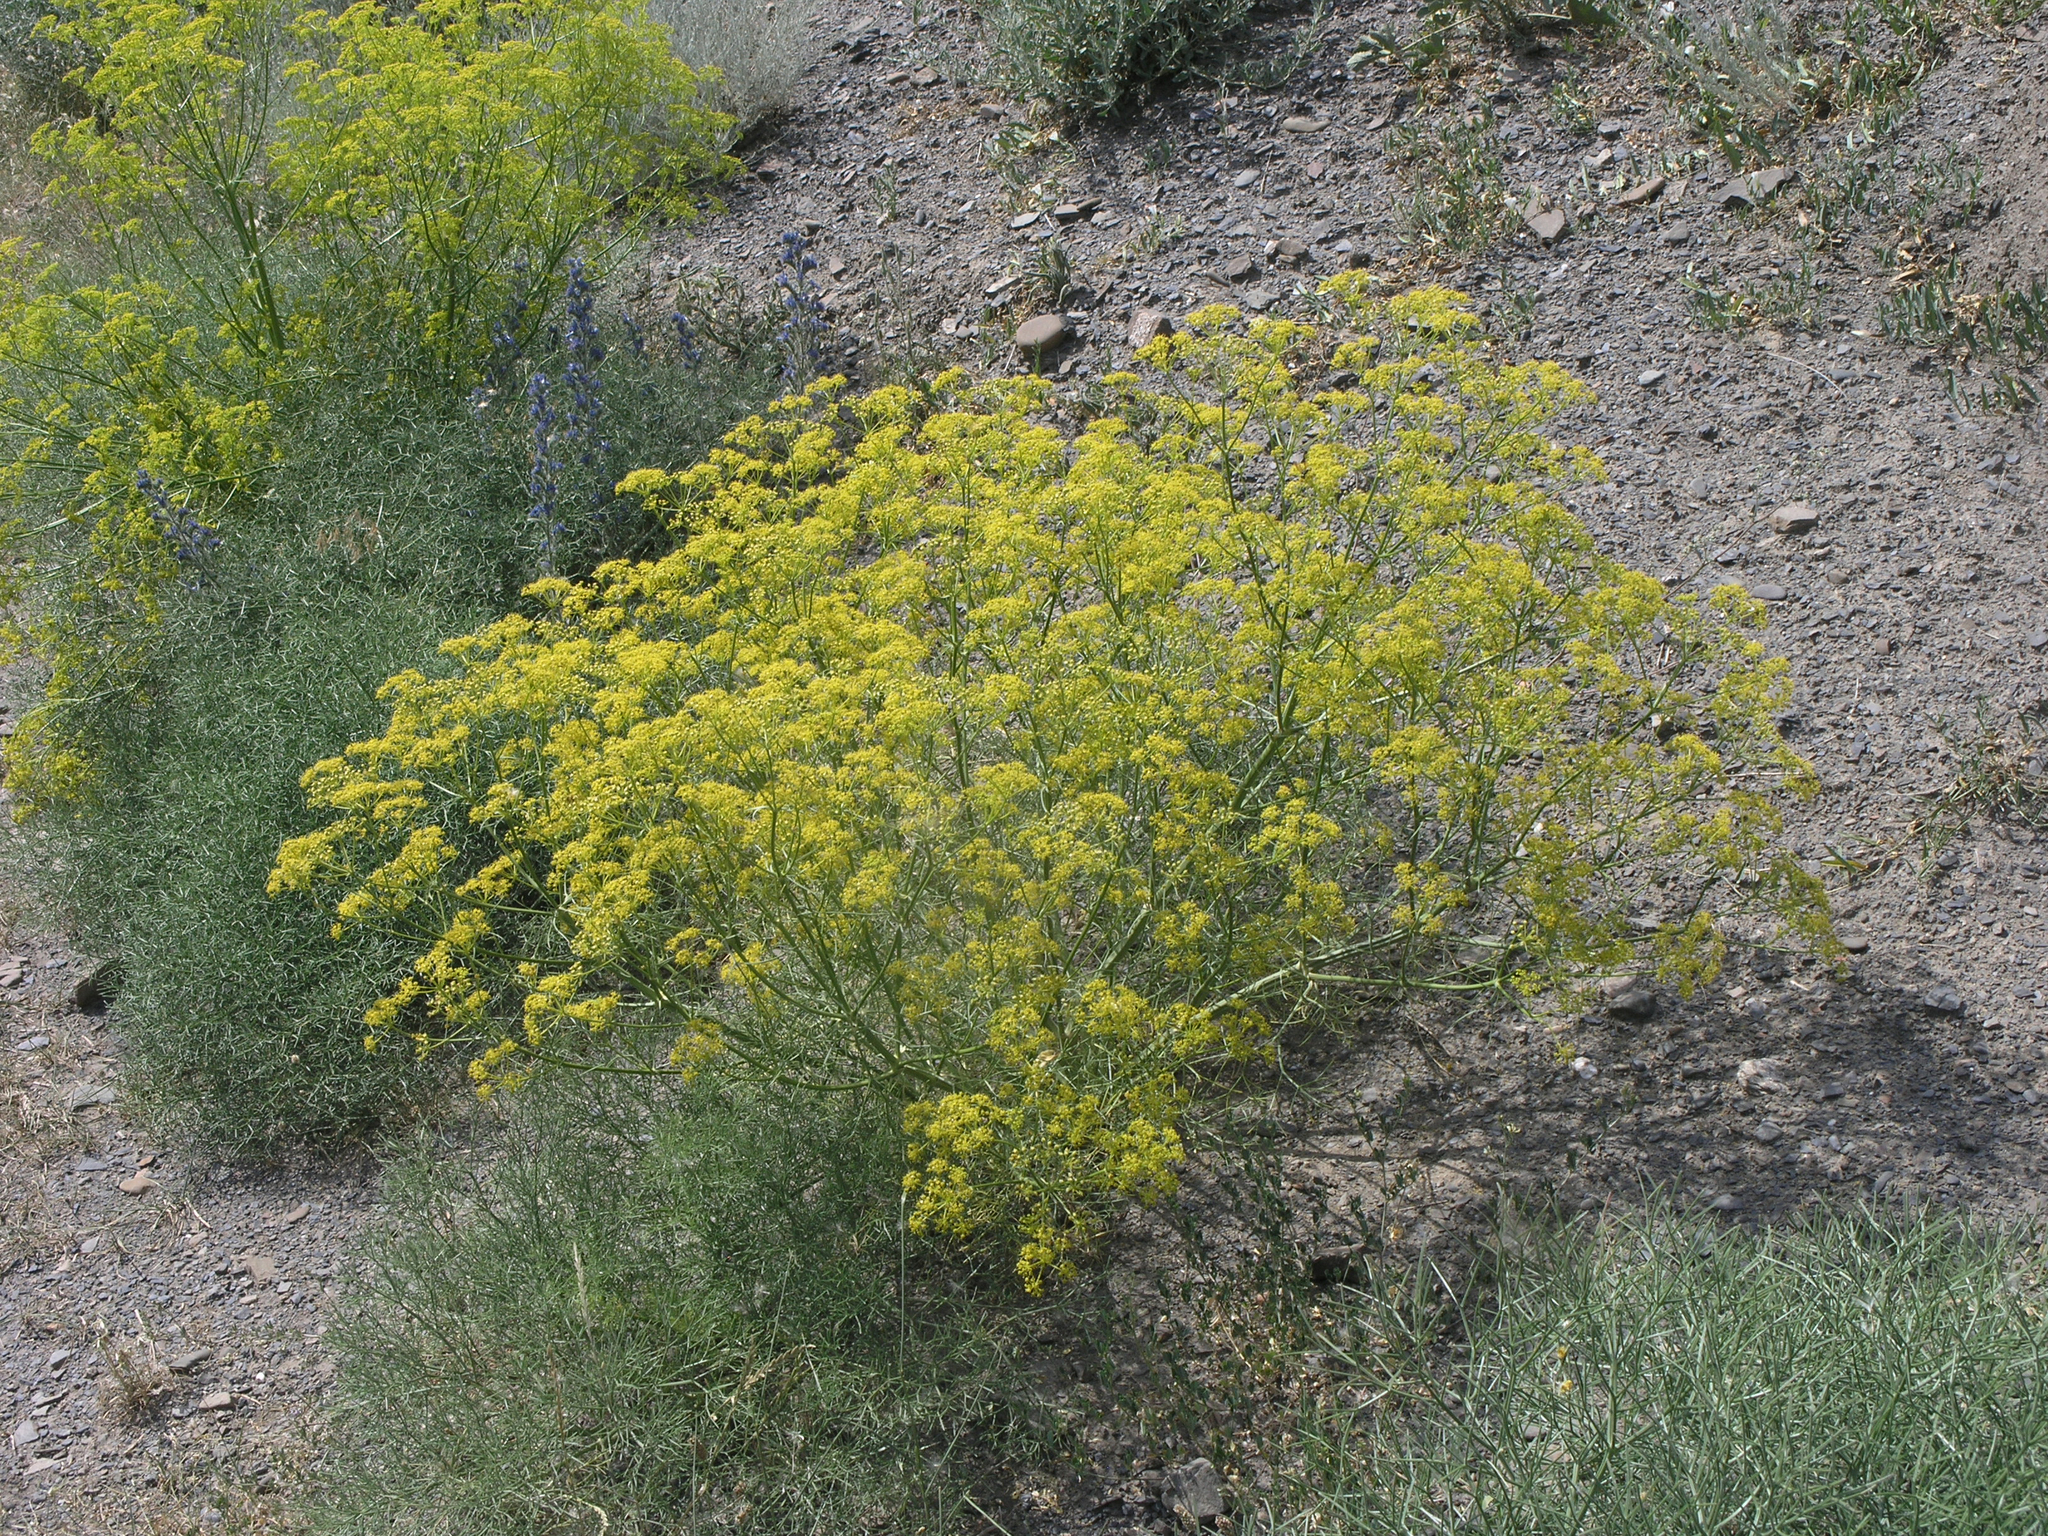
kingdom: Plantae
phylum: Tracheophyta
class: Magnoliopsida
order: Apiales
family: Apiaceae
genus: Bilacunaria
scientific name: Bilacunaria microcarpa
